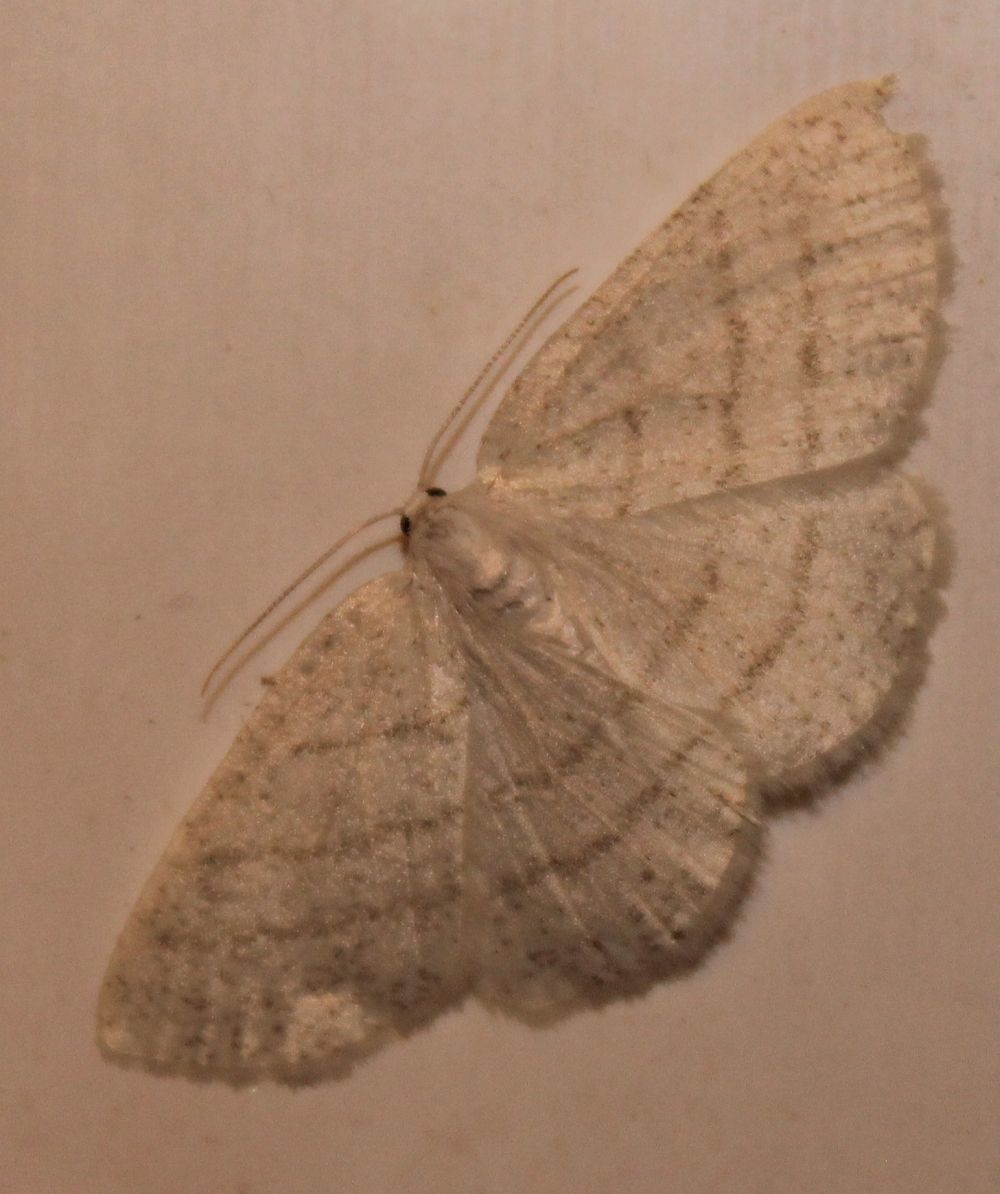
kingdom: Animalia
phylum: Arthropoda
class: Insecta
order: Lepidoptera
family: Geometridae
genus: Cabera
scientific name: Cabera pusaria
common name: Common white wave
